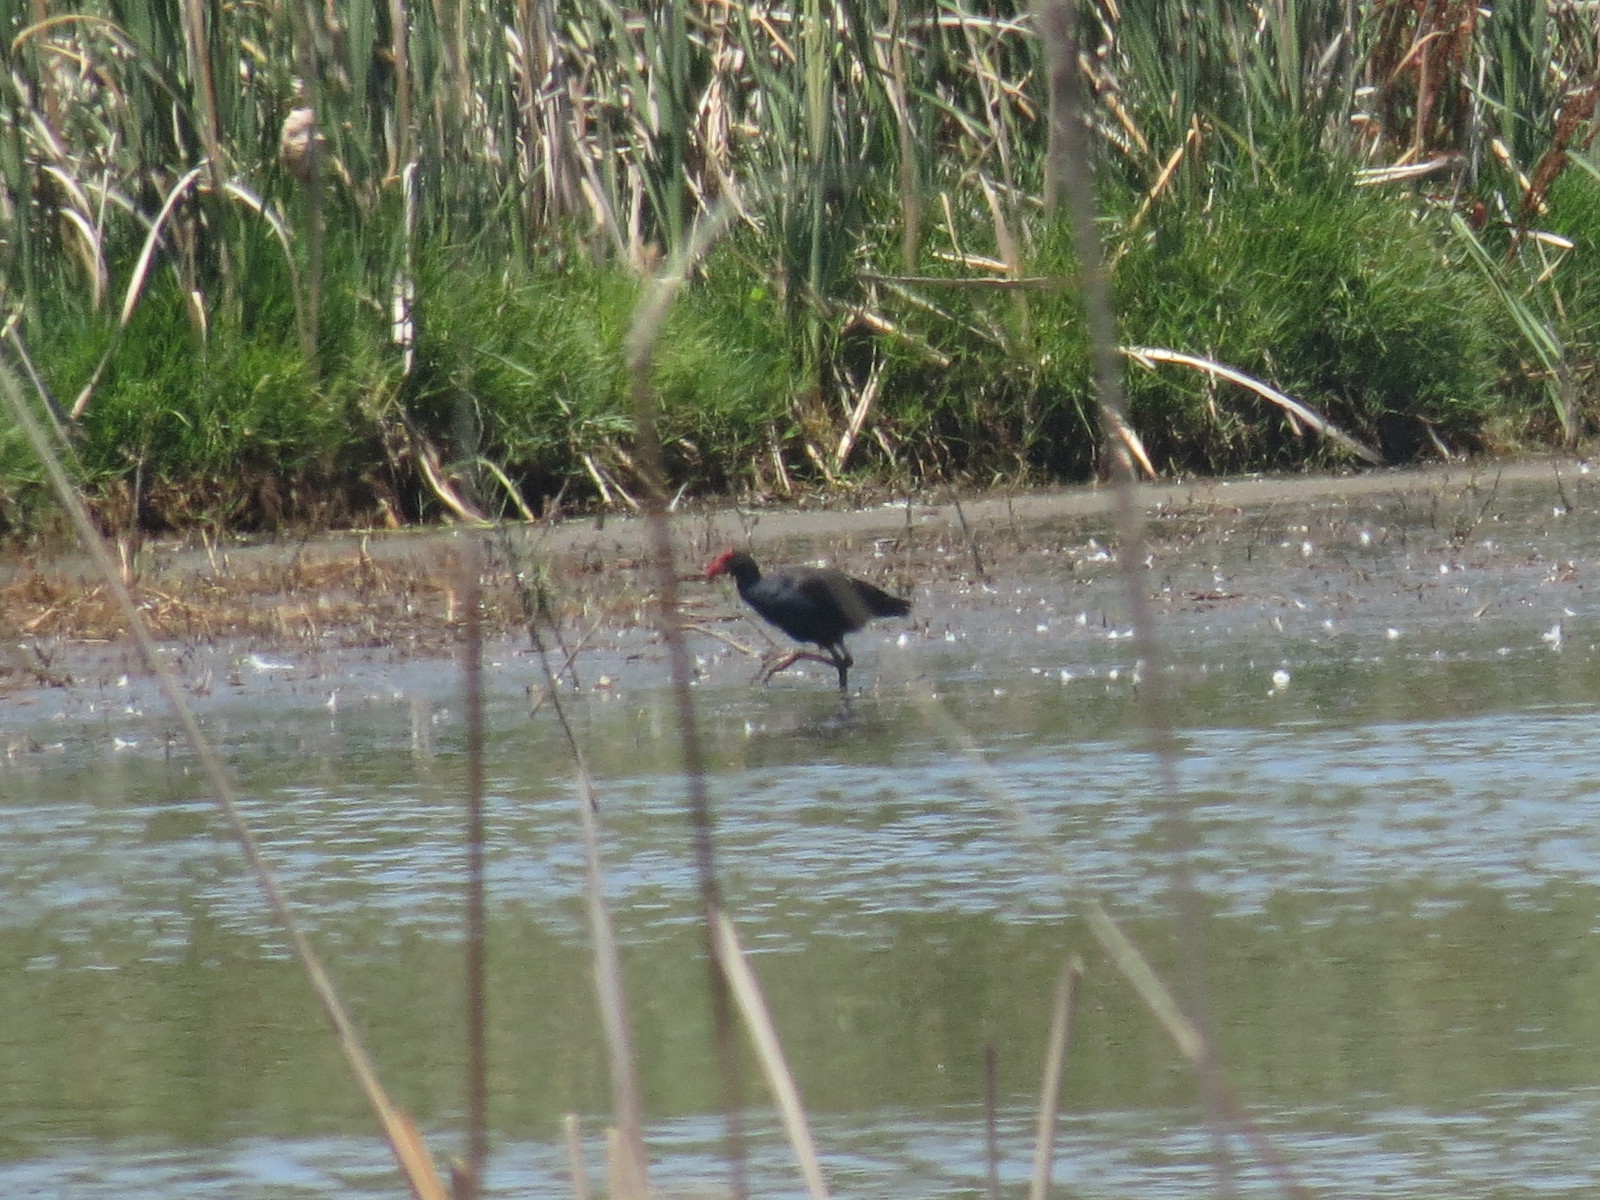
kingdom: Animalia
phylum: Chordata
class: Aves
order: Gruiformes
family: Rallidae
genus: Porphyrio
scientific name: Porphyrio melanotus
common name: Australasian swamphen
